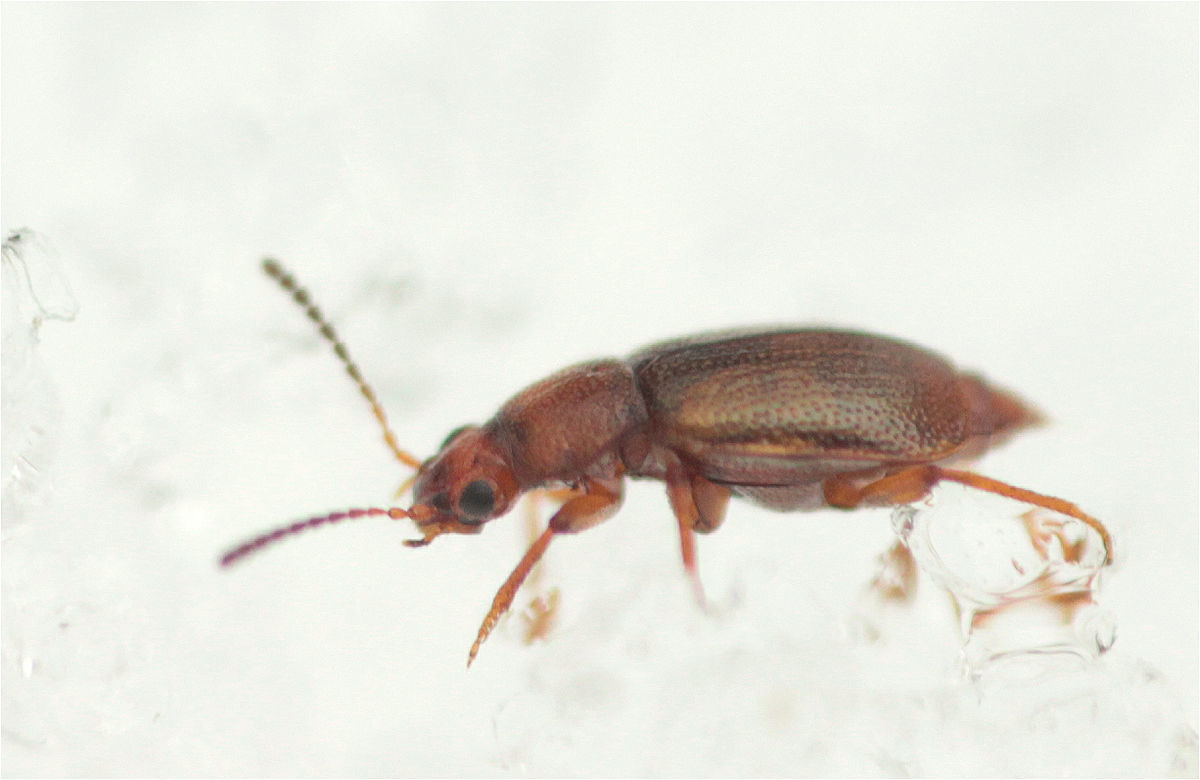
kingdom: Animalia
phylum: Arthropoda
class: Insecta
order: Coleoptera
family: Staphylinidae
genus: Anthobium
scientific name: Anthobium unicolor
